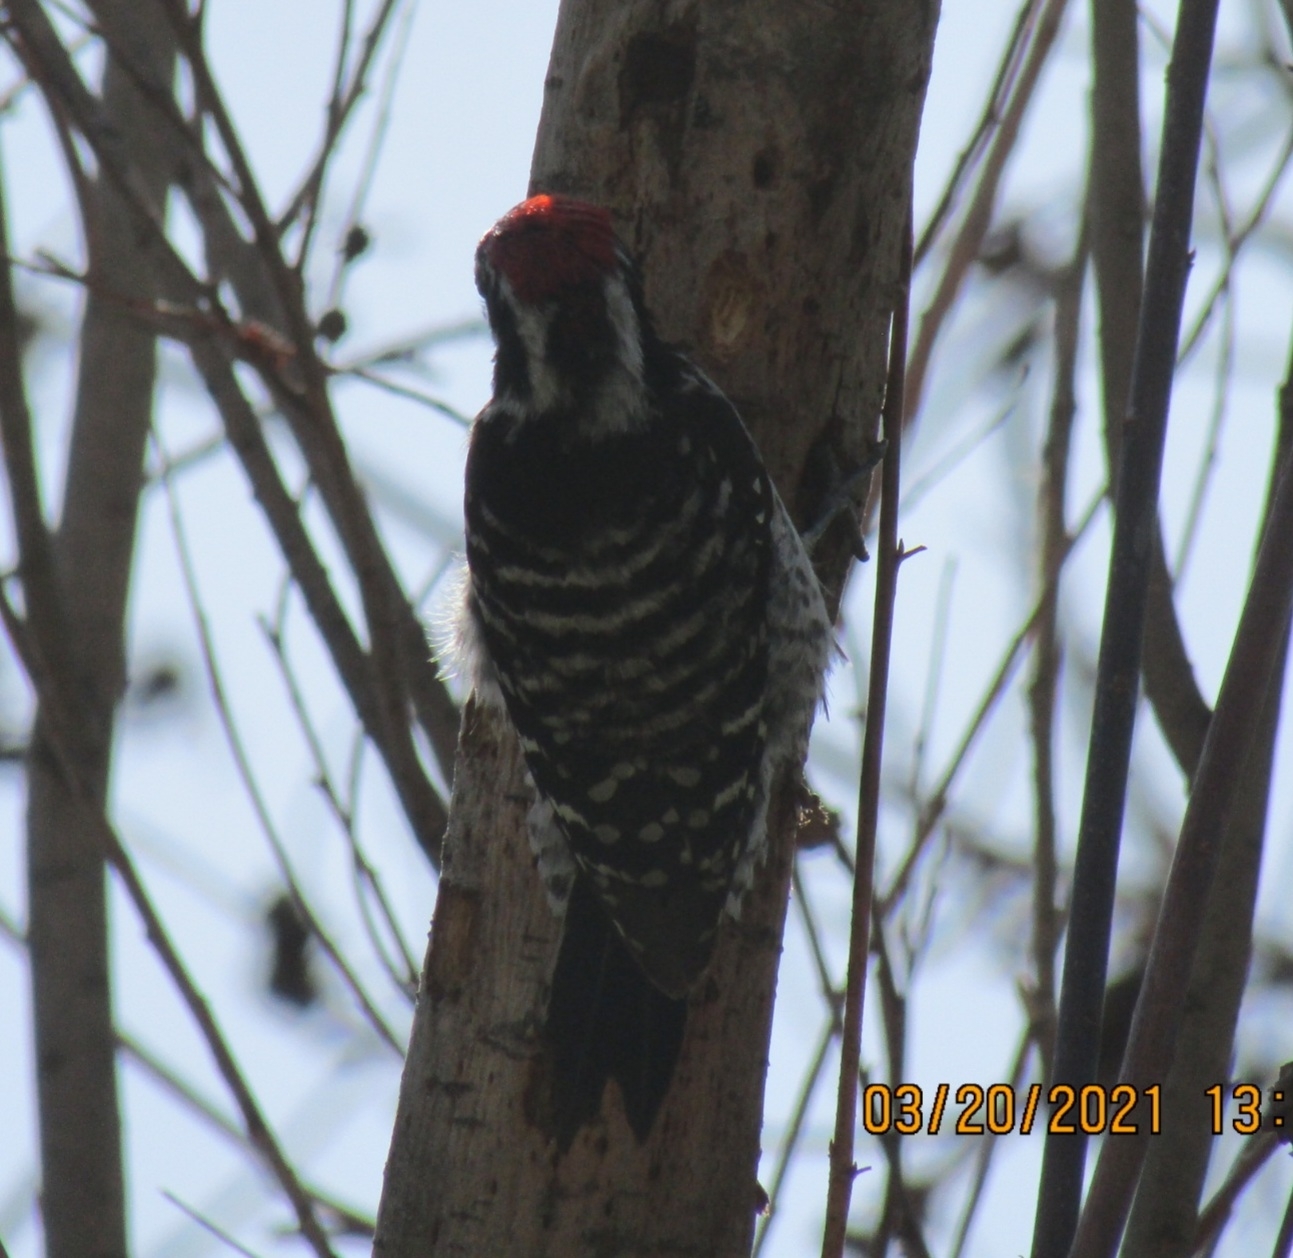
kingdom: Animalia
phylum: Chordata
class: Aves
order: Piciformes
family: Picidae
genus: Dryobates
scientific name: Dryobates nuttallii
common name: Nuttall's woodpecker
